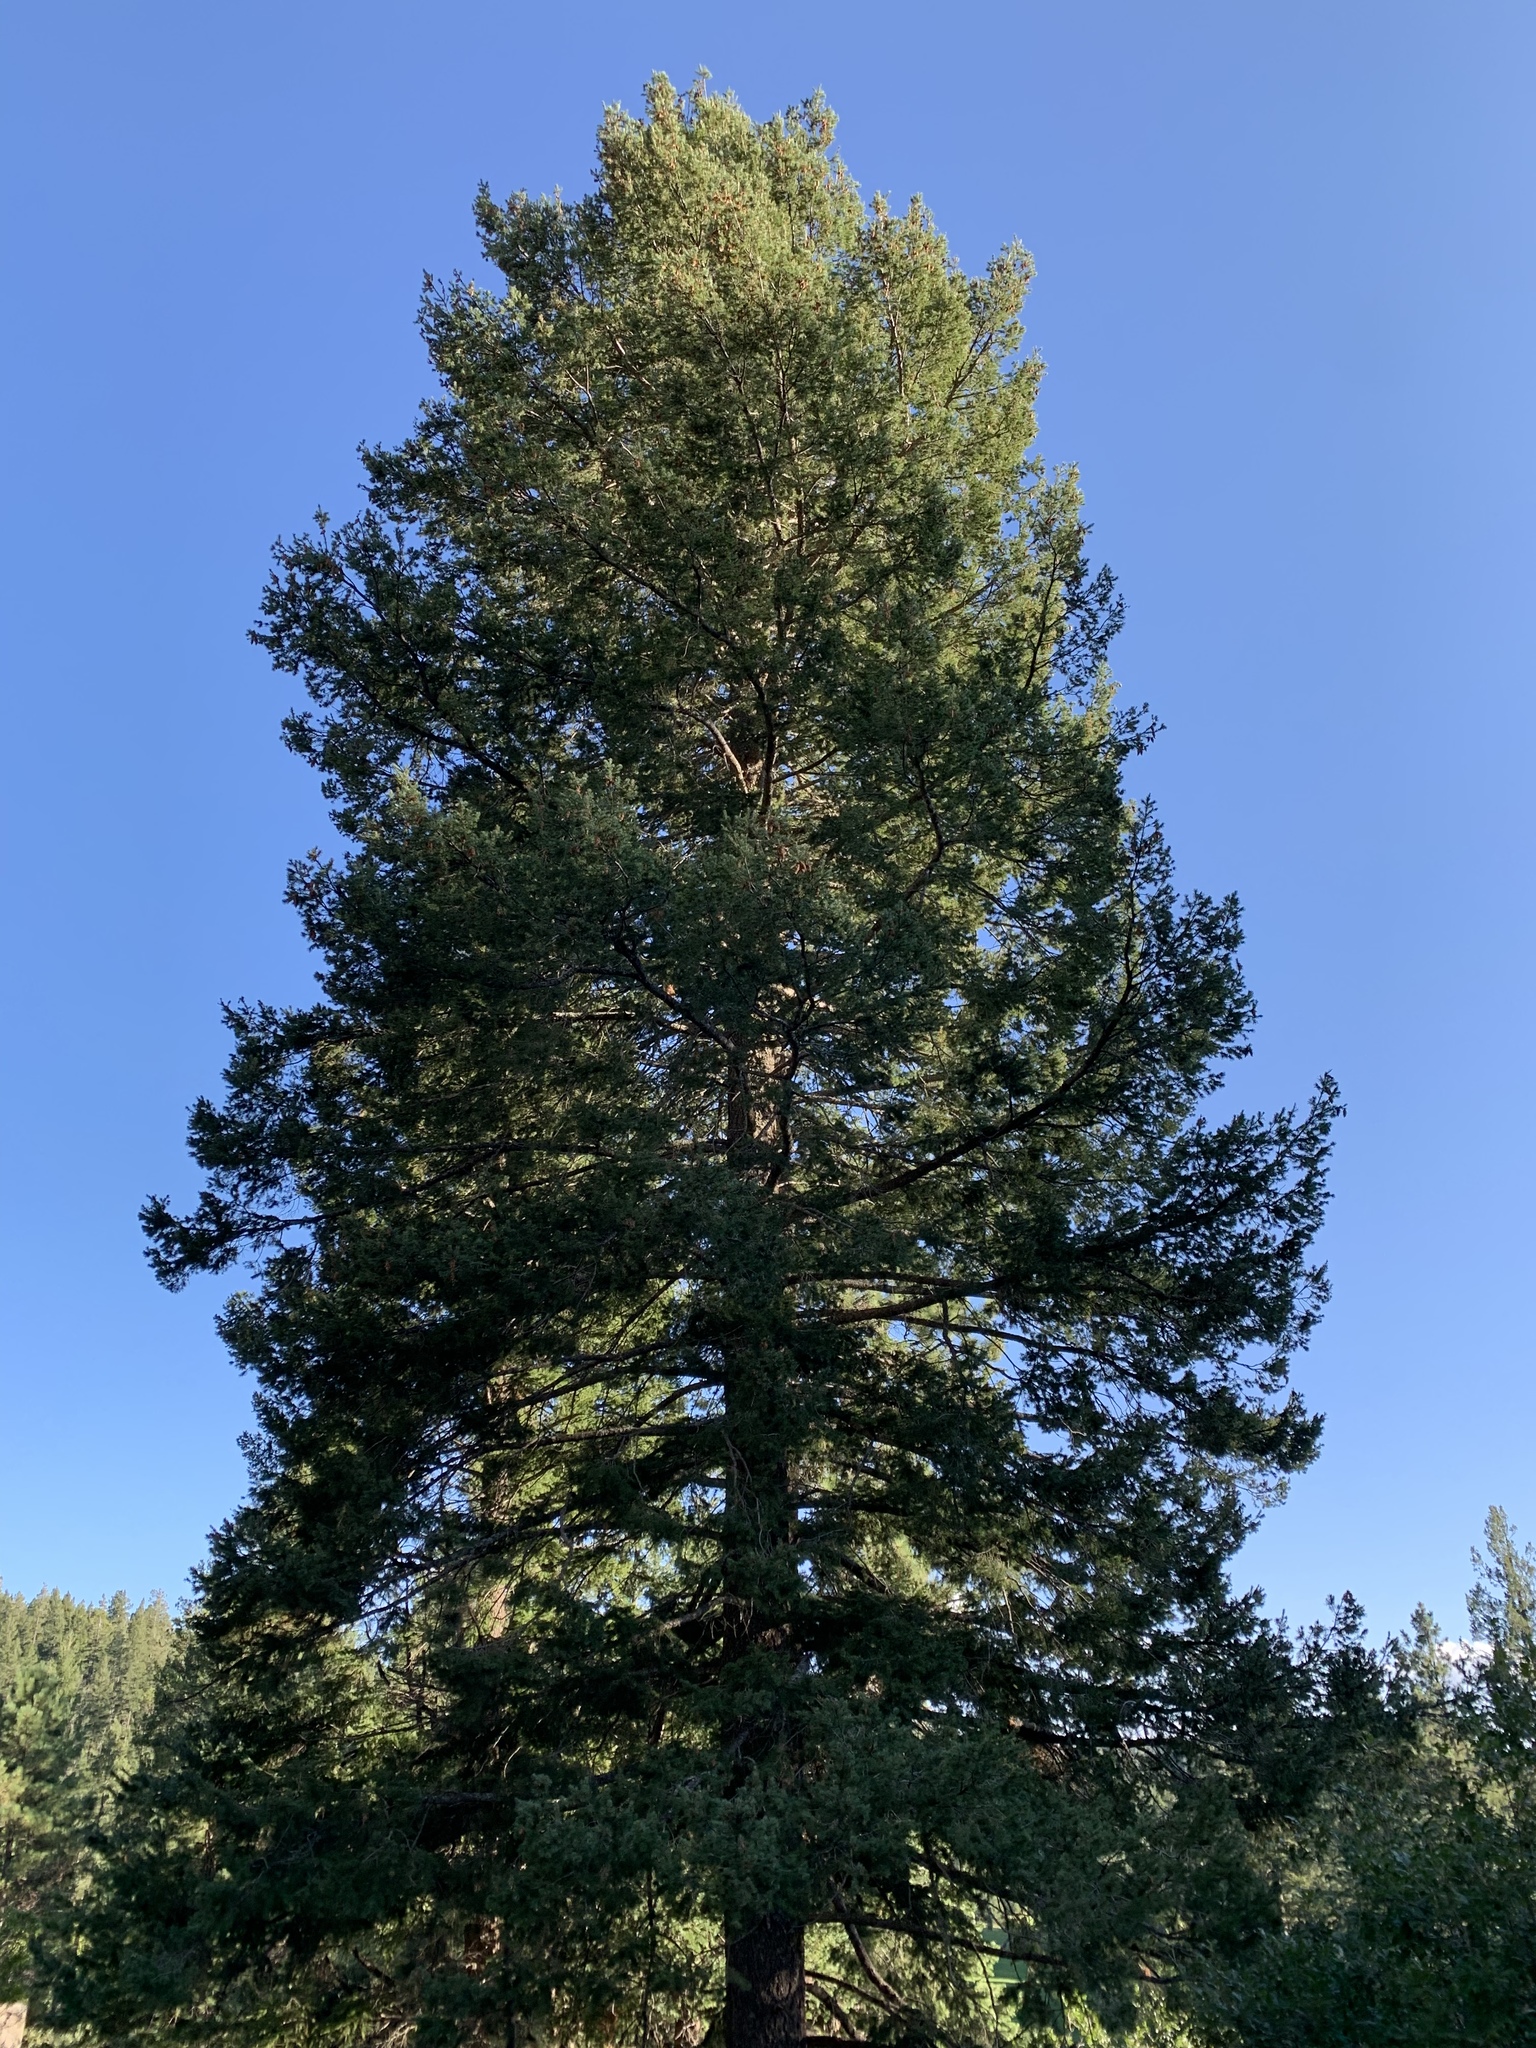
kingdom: Plantae
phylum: Tracheophyta
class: Pinopsida
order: Pinales
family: Pinaceae
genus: Pseudotsuga
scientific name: Pseudotsuga menziesii
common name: Douglas fir
